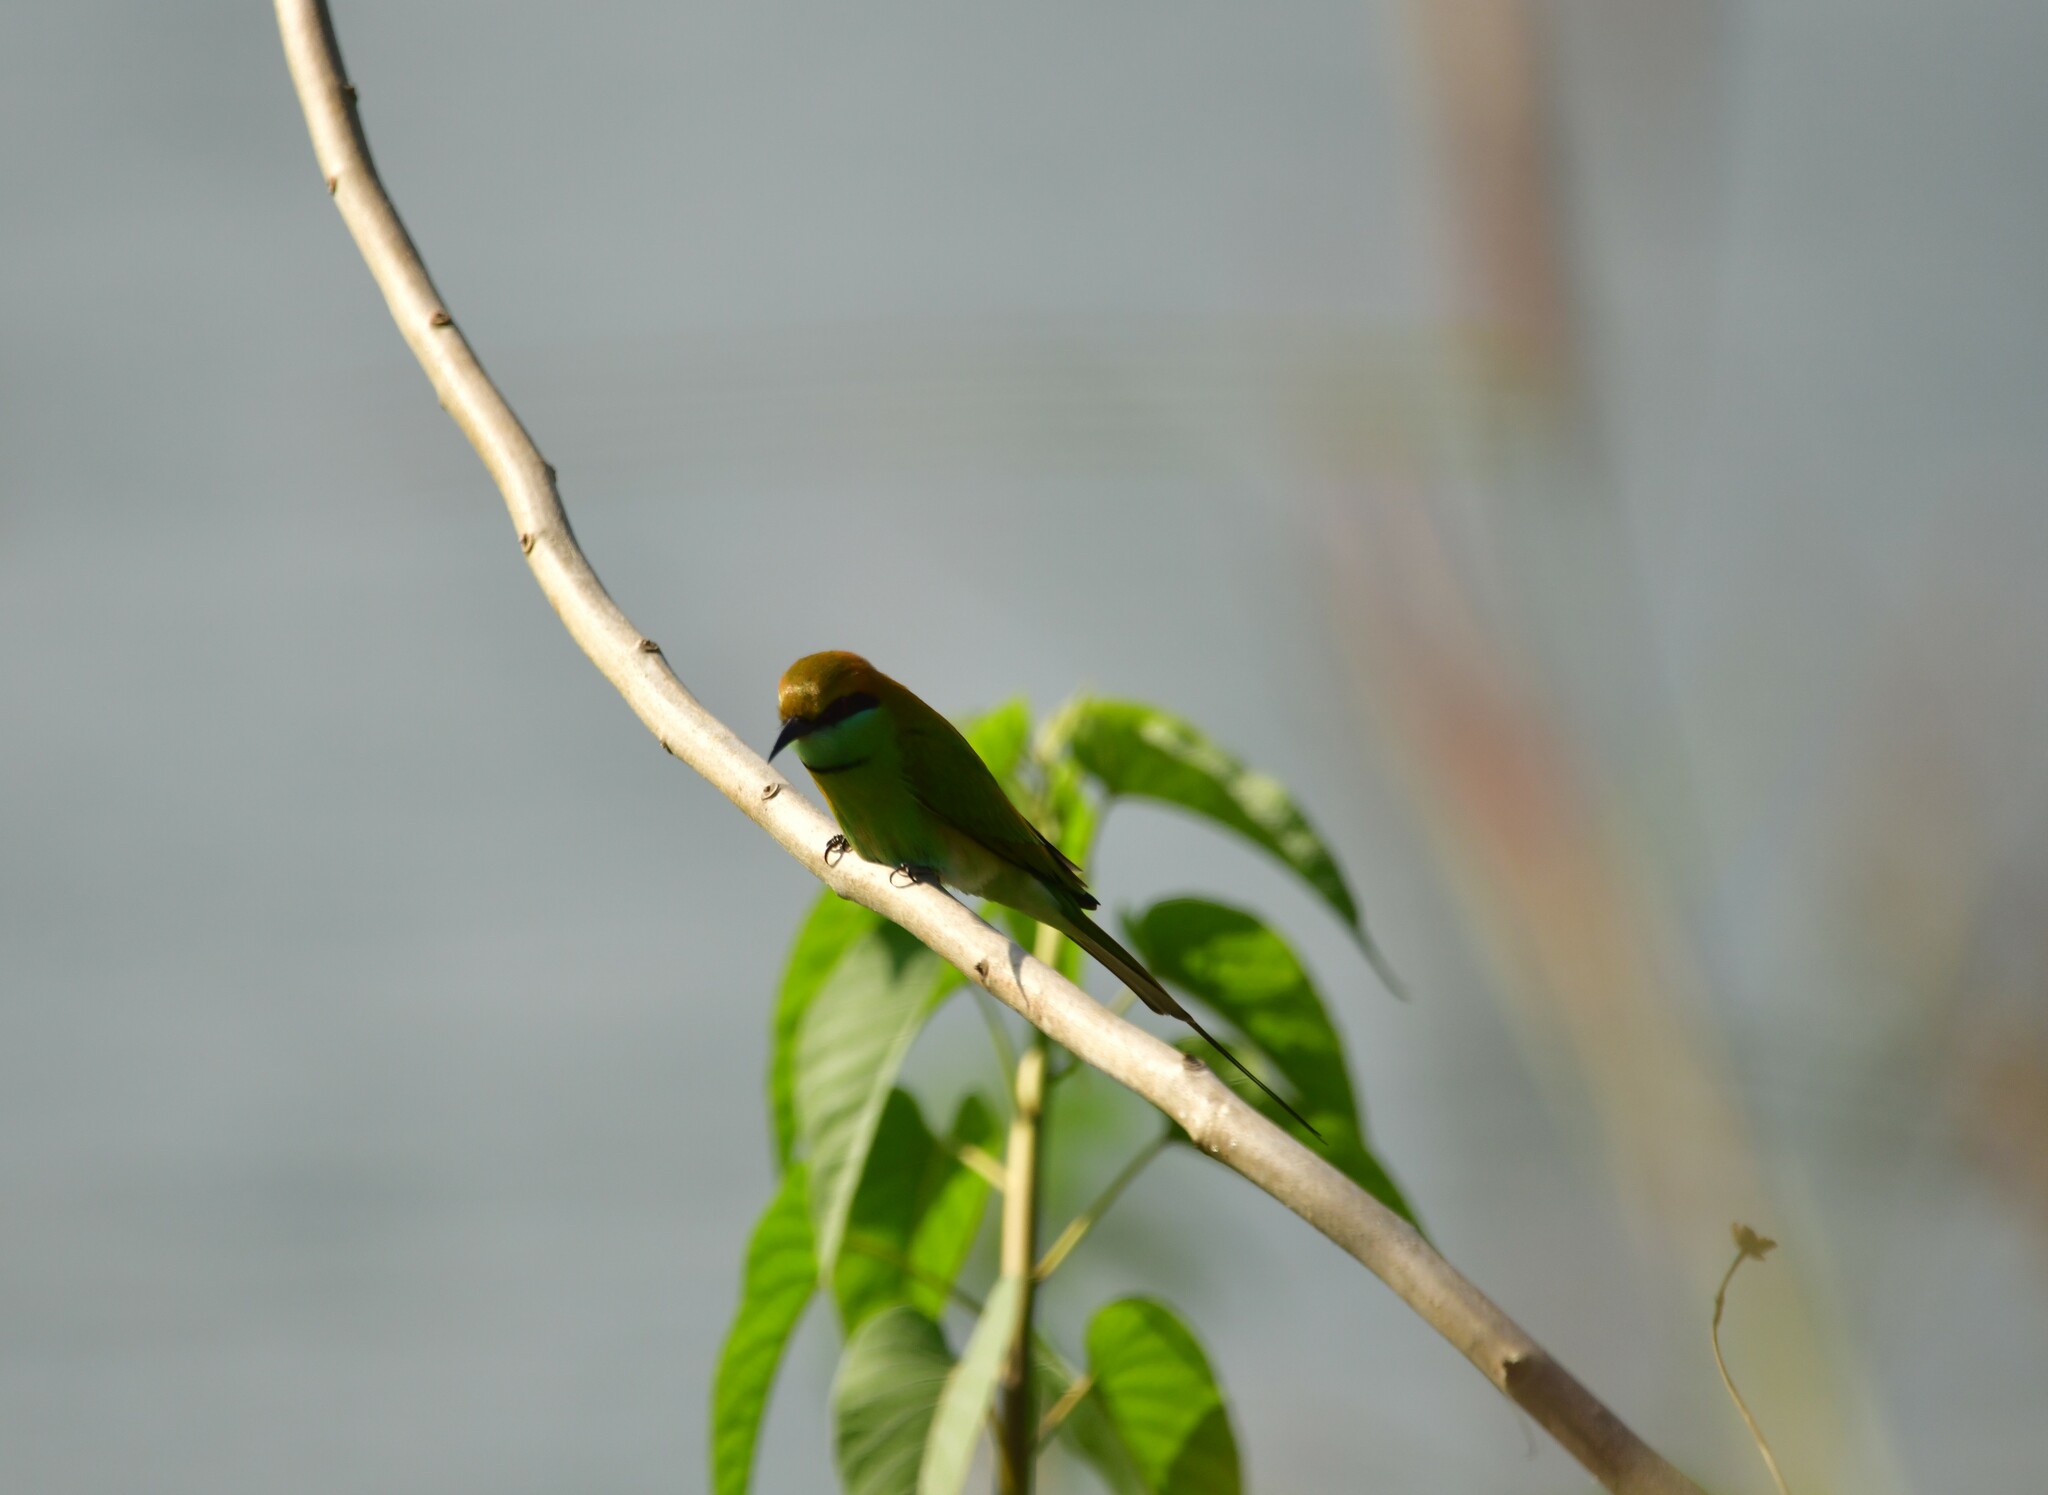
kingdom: Animalia
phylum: Chordata
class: Aves
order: Coraciiformes
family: Meropidae
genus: Merops
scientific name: Merops orientalis
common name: Green bee-eater
